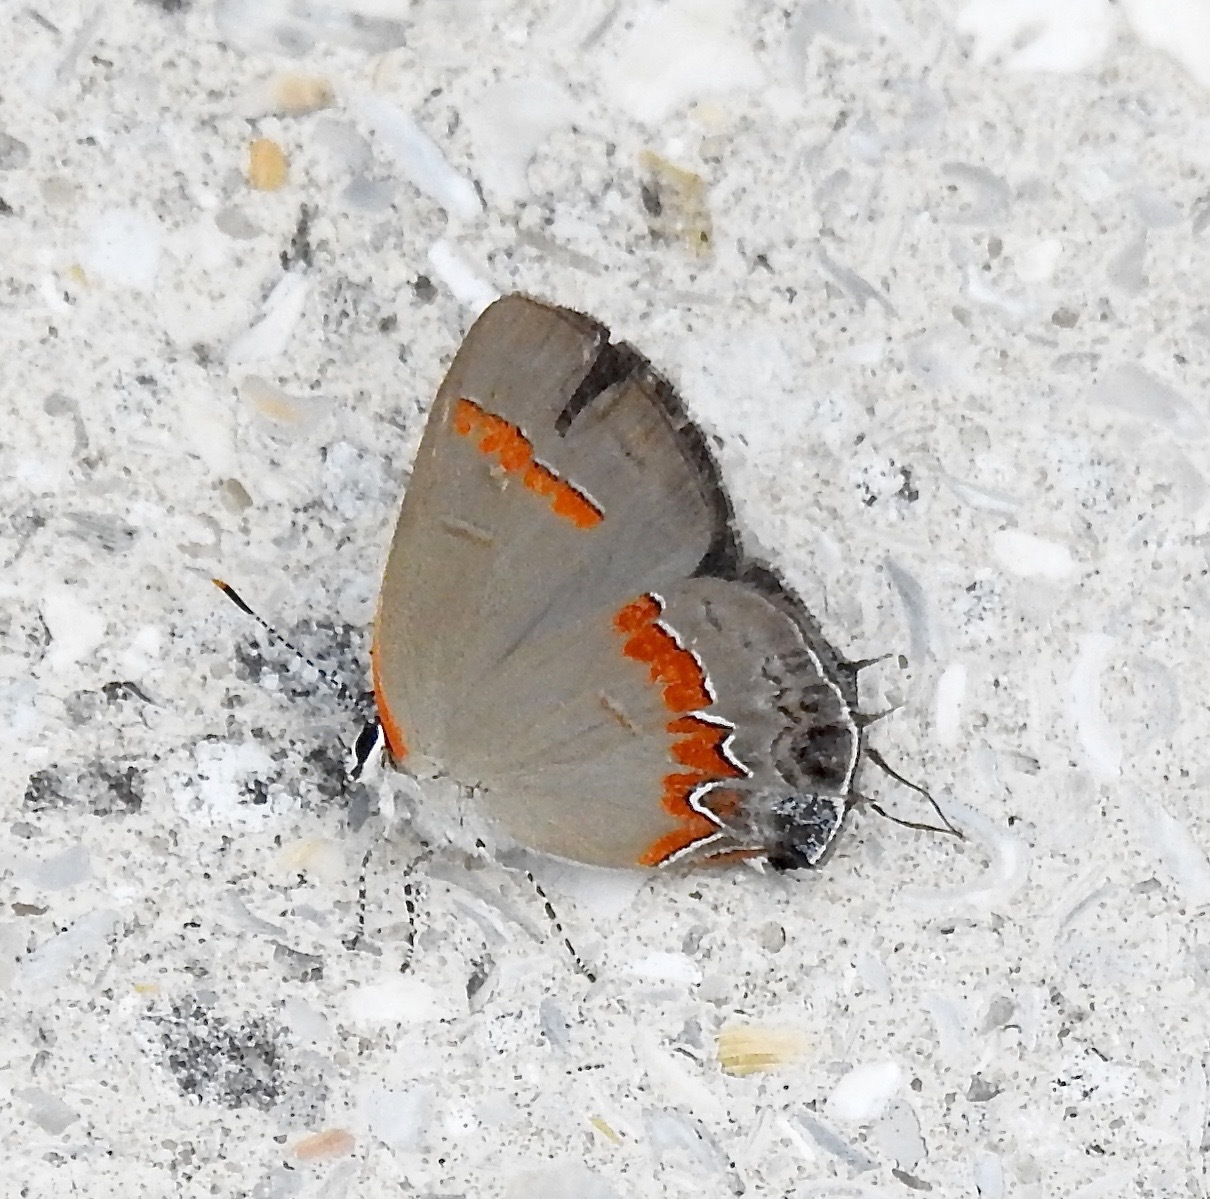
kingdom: Animalia
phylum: Arthropoda
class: Insecta
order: Lepidoptera
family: Lycaenidae
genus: Calycopis
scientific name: Calycopis cecrops
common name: Red-banded hairstreak
